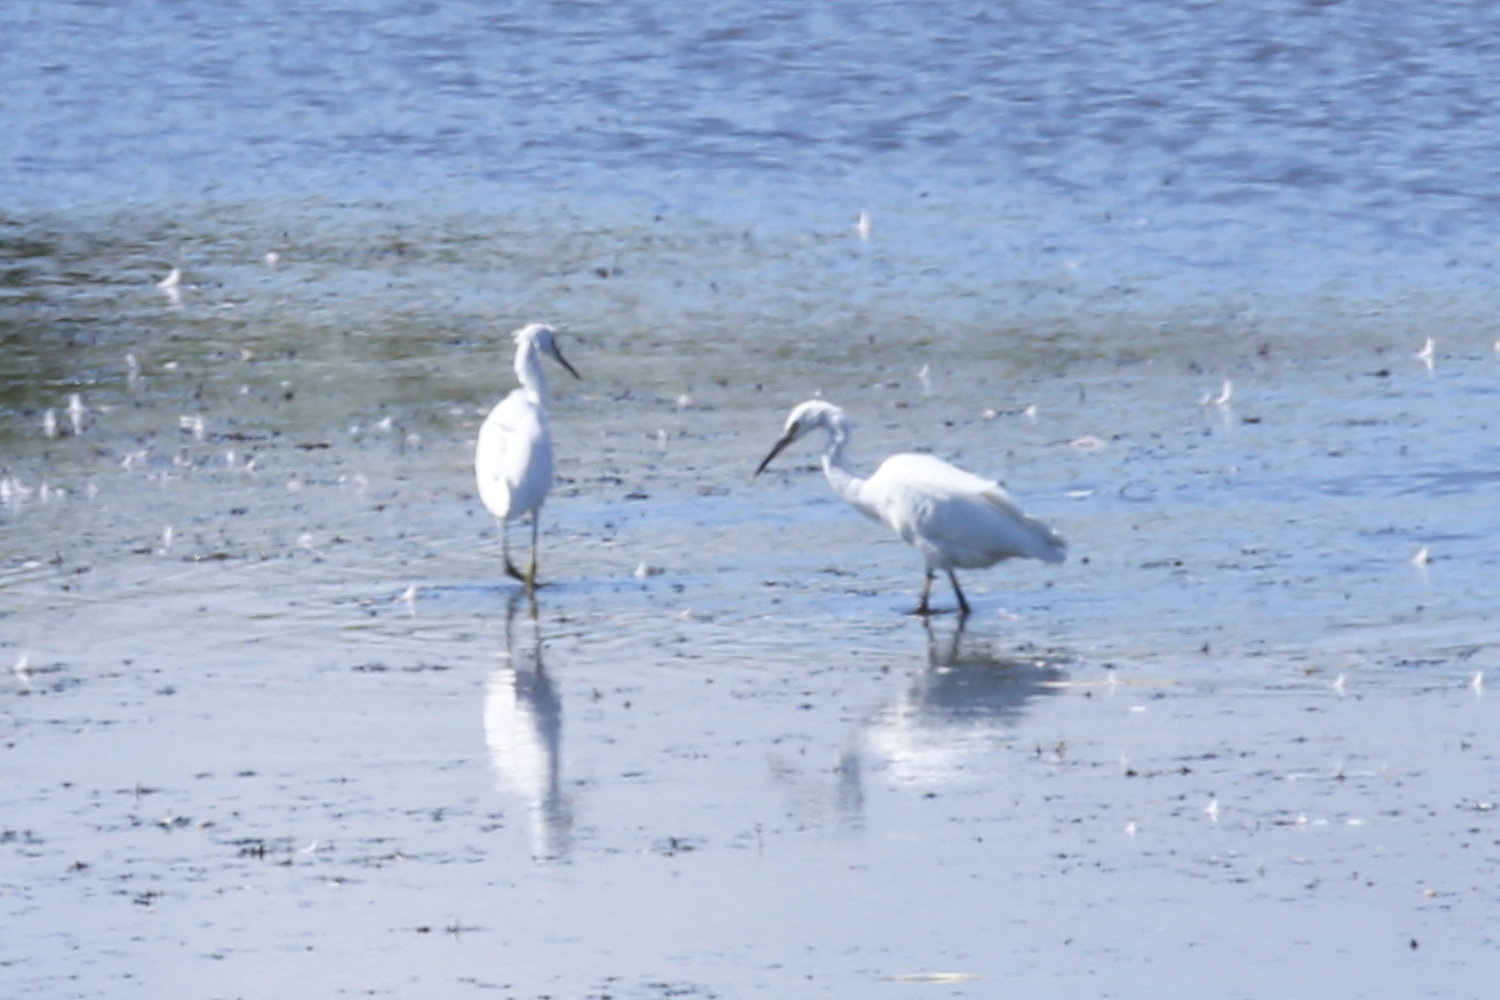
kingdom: Animalia
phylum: Chordata
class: Aves
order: Pelecaniformes
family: Ardeidae
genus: Egretta
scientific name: Egretta garzetta
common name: Little egret
